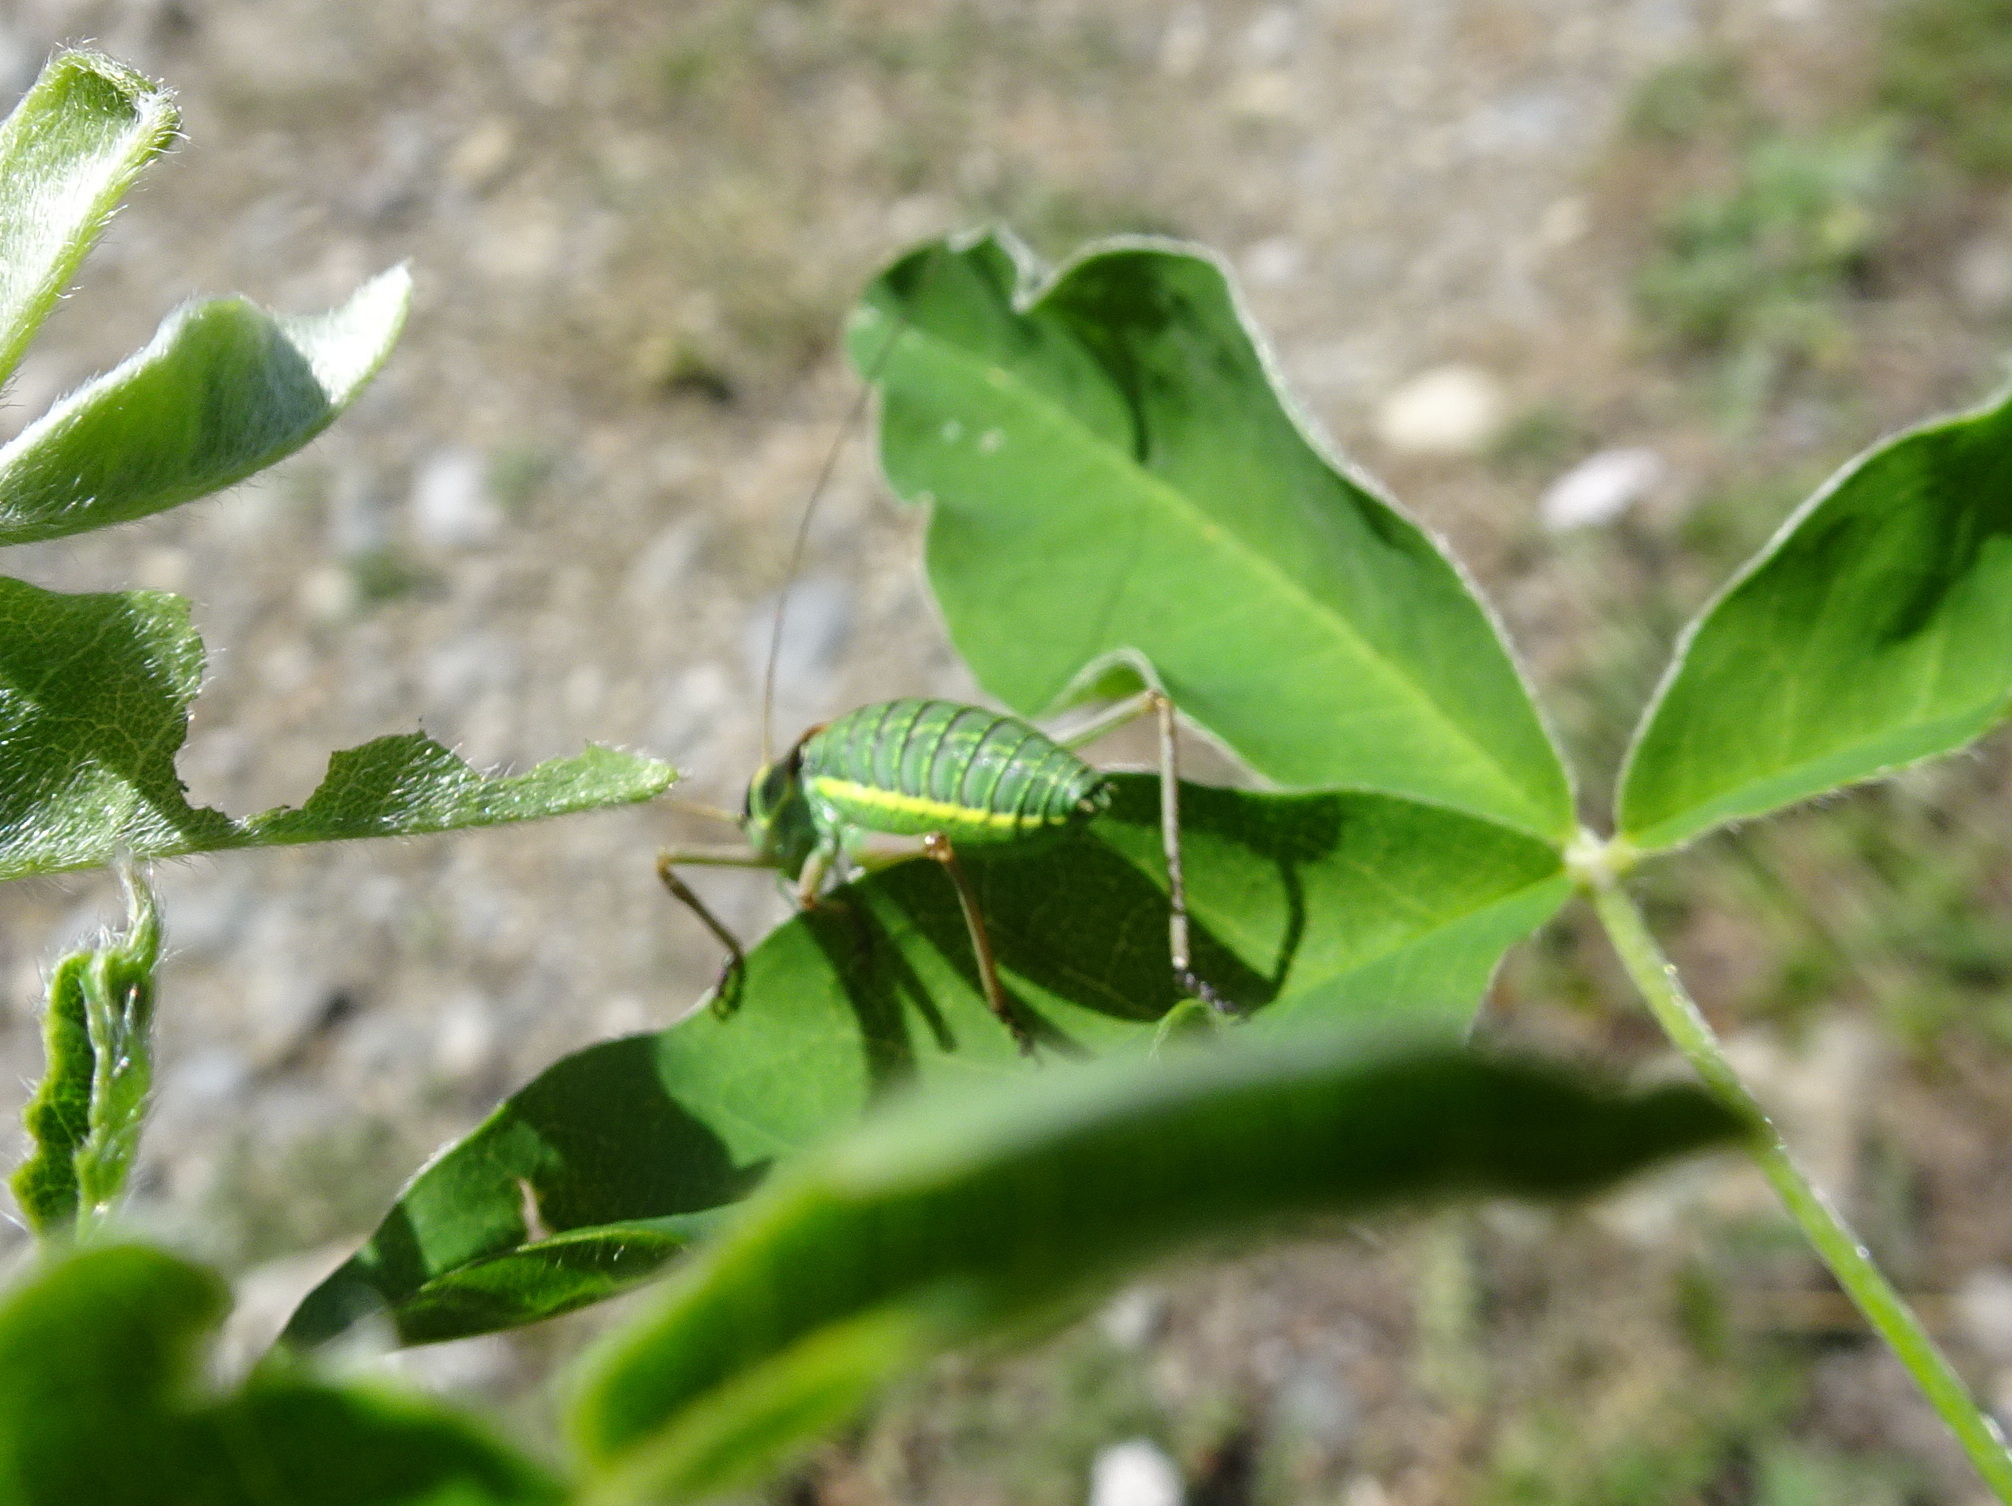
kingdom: Animalia
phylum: Arthropoda
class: Insecta
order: Orthoptera
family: Tettigoniidae
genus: Ephippiger
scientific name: Ephippiger diurnus
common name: Western saddle bush-cricket
